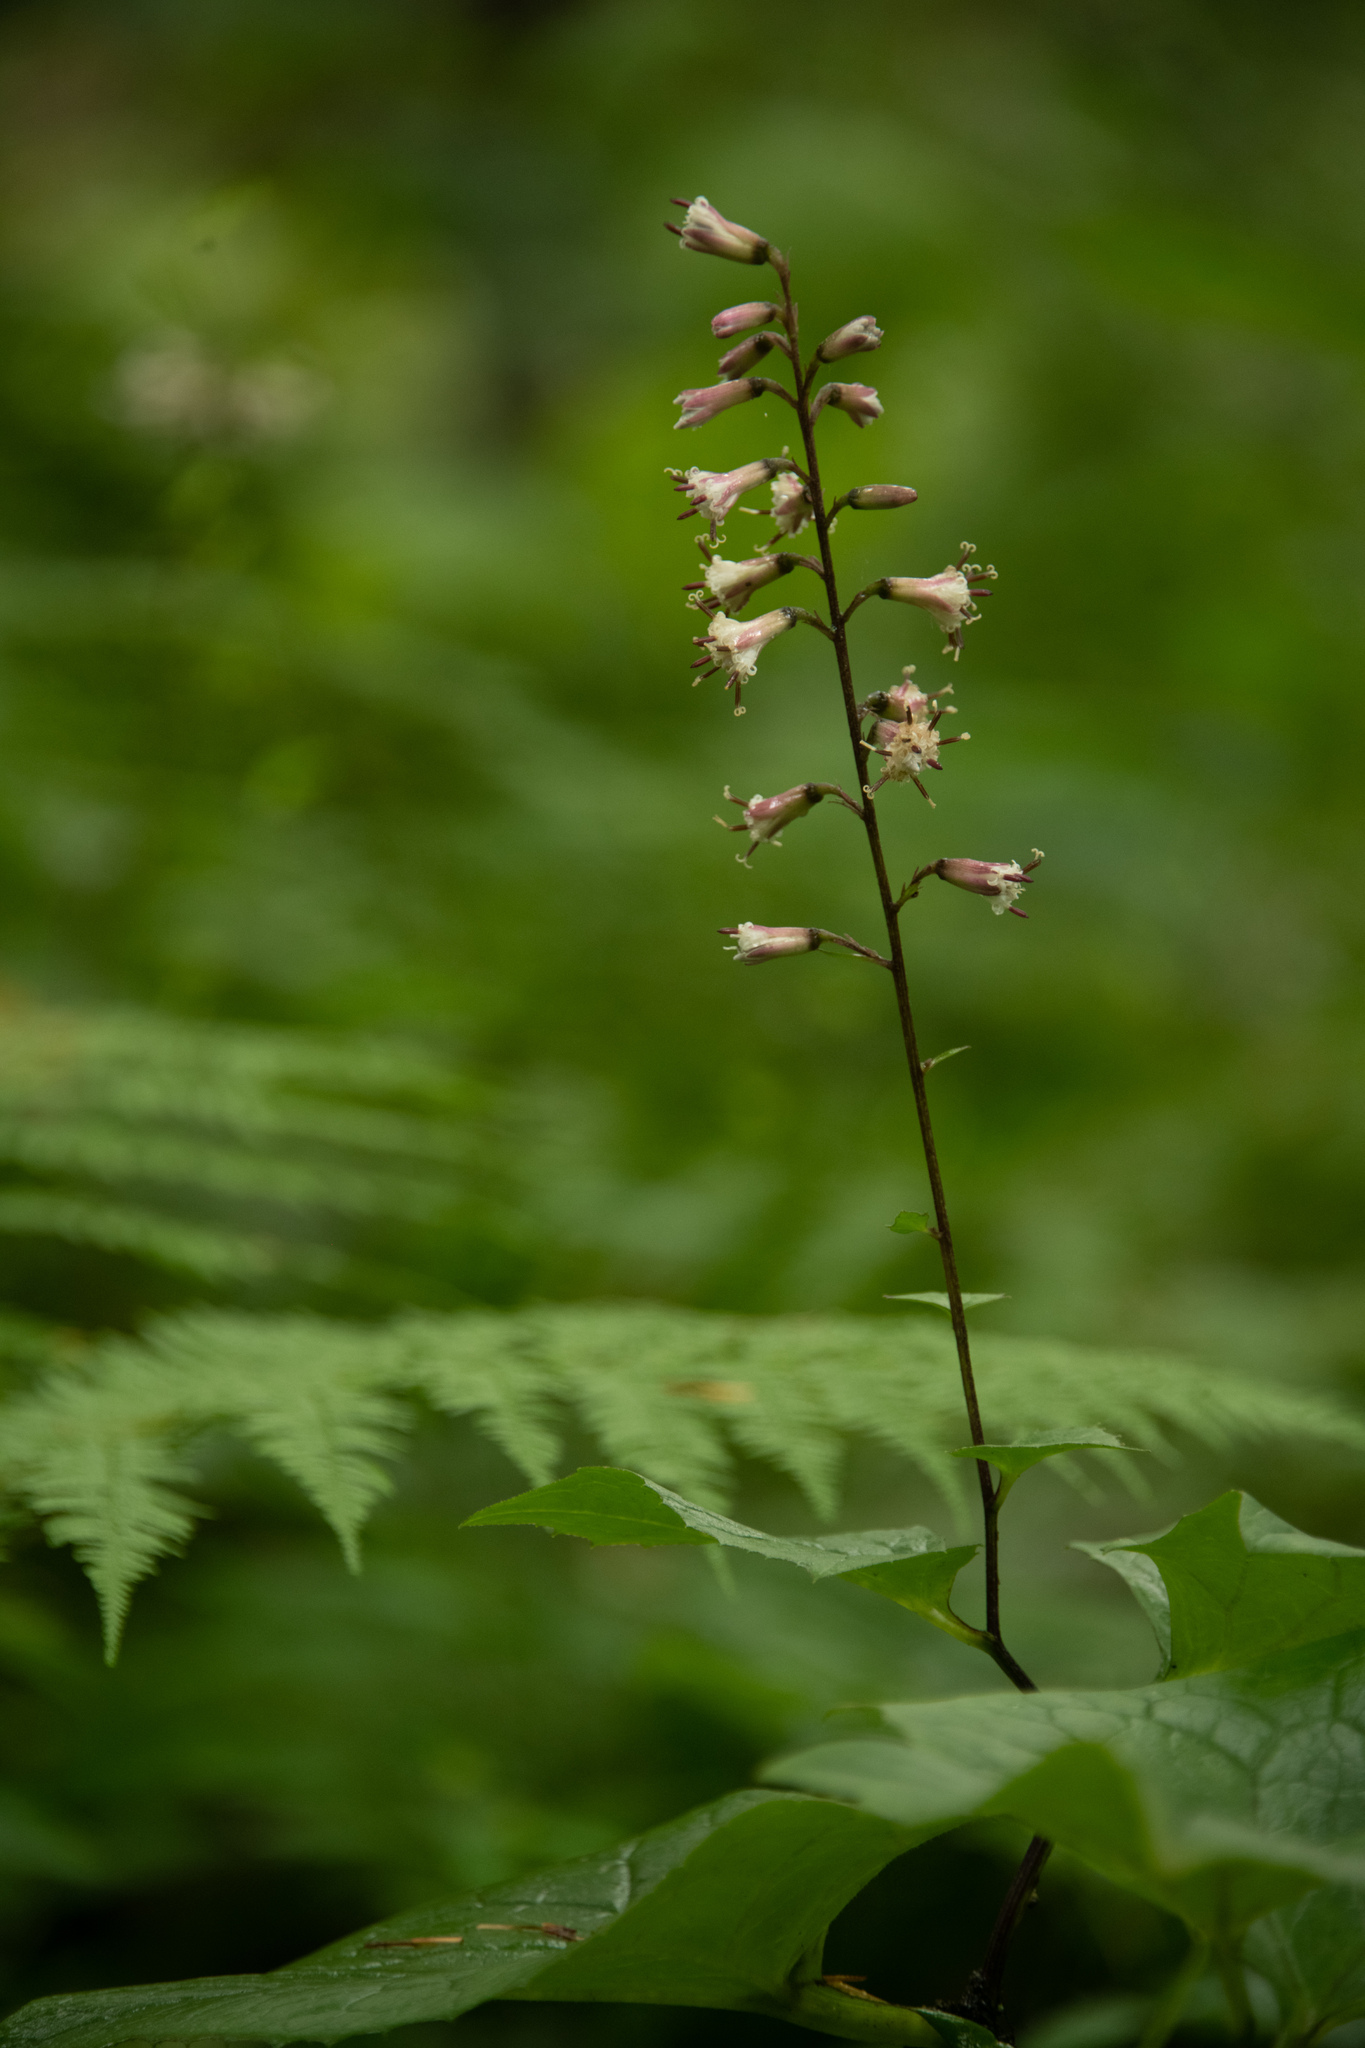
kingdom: Plantae
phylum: Tracheophyta
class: Magnoliopsida
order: Asterales
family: Asteraceae
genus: Parasenecio
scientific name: Parasenecio praetermissus
